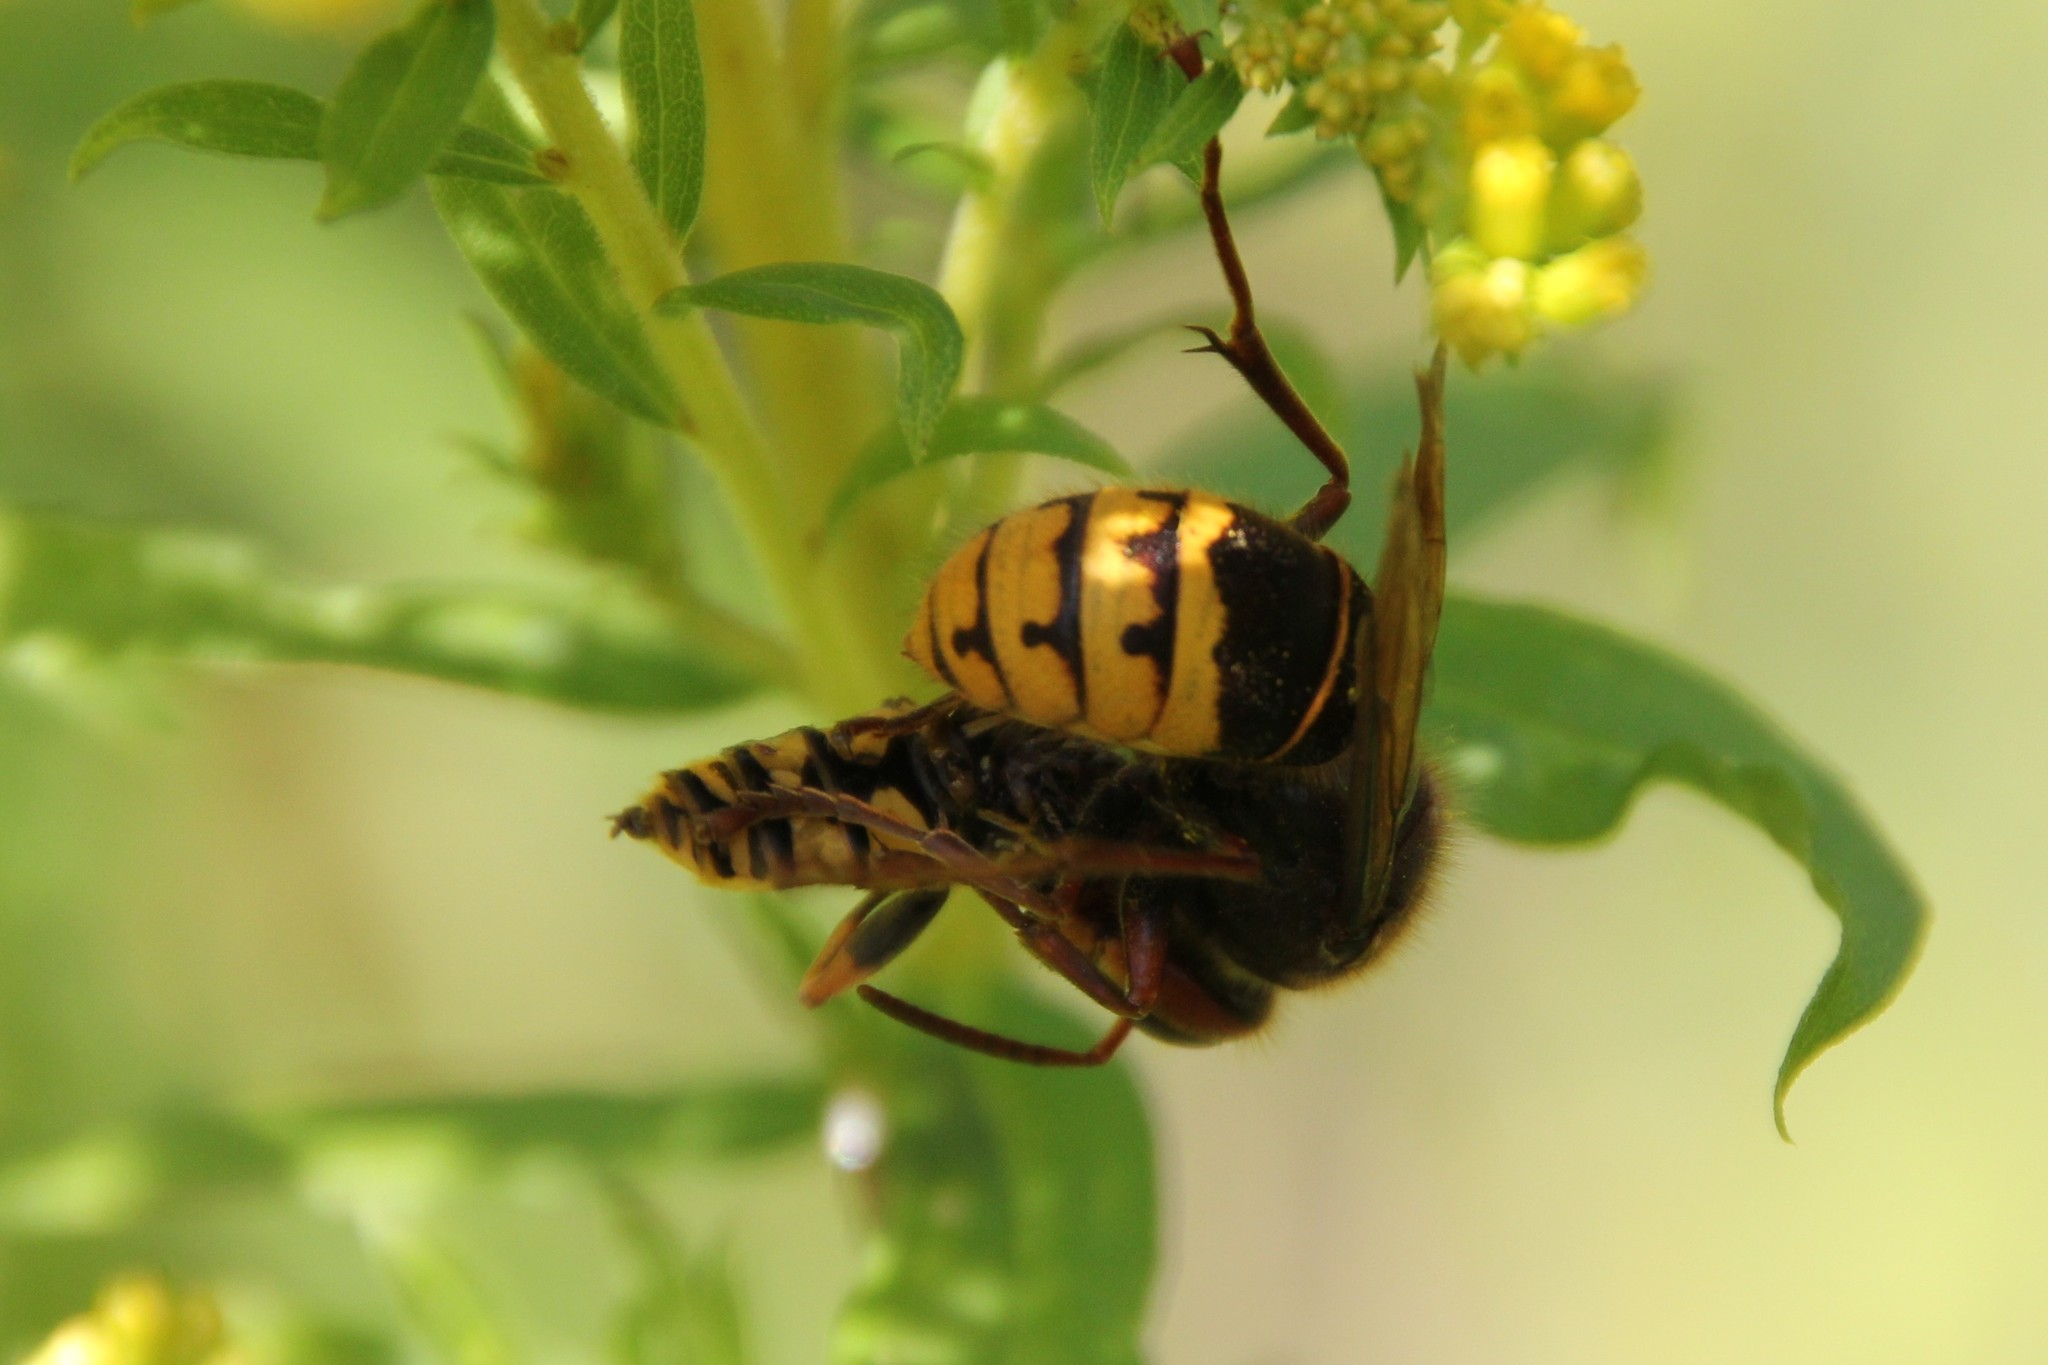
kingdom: Animalia
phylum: Arthropoda
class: Insecta
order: Hymenoptera
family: Vespidae
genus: Vespa
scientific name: Vespa crabro
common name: Hornet
